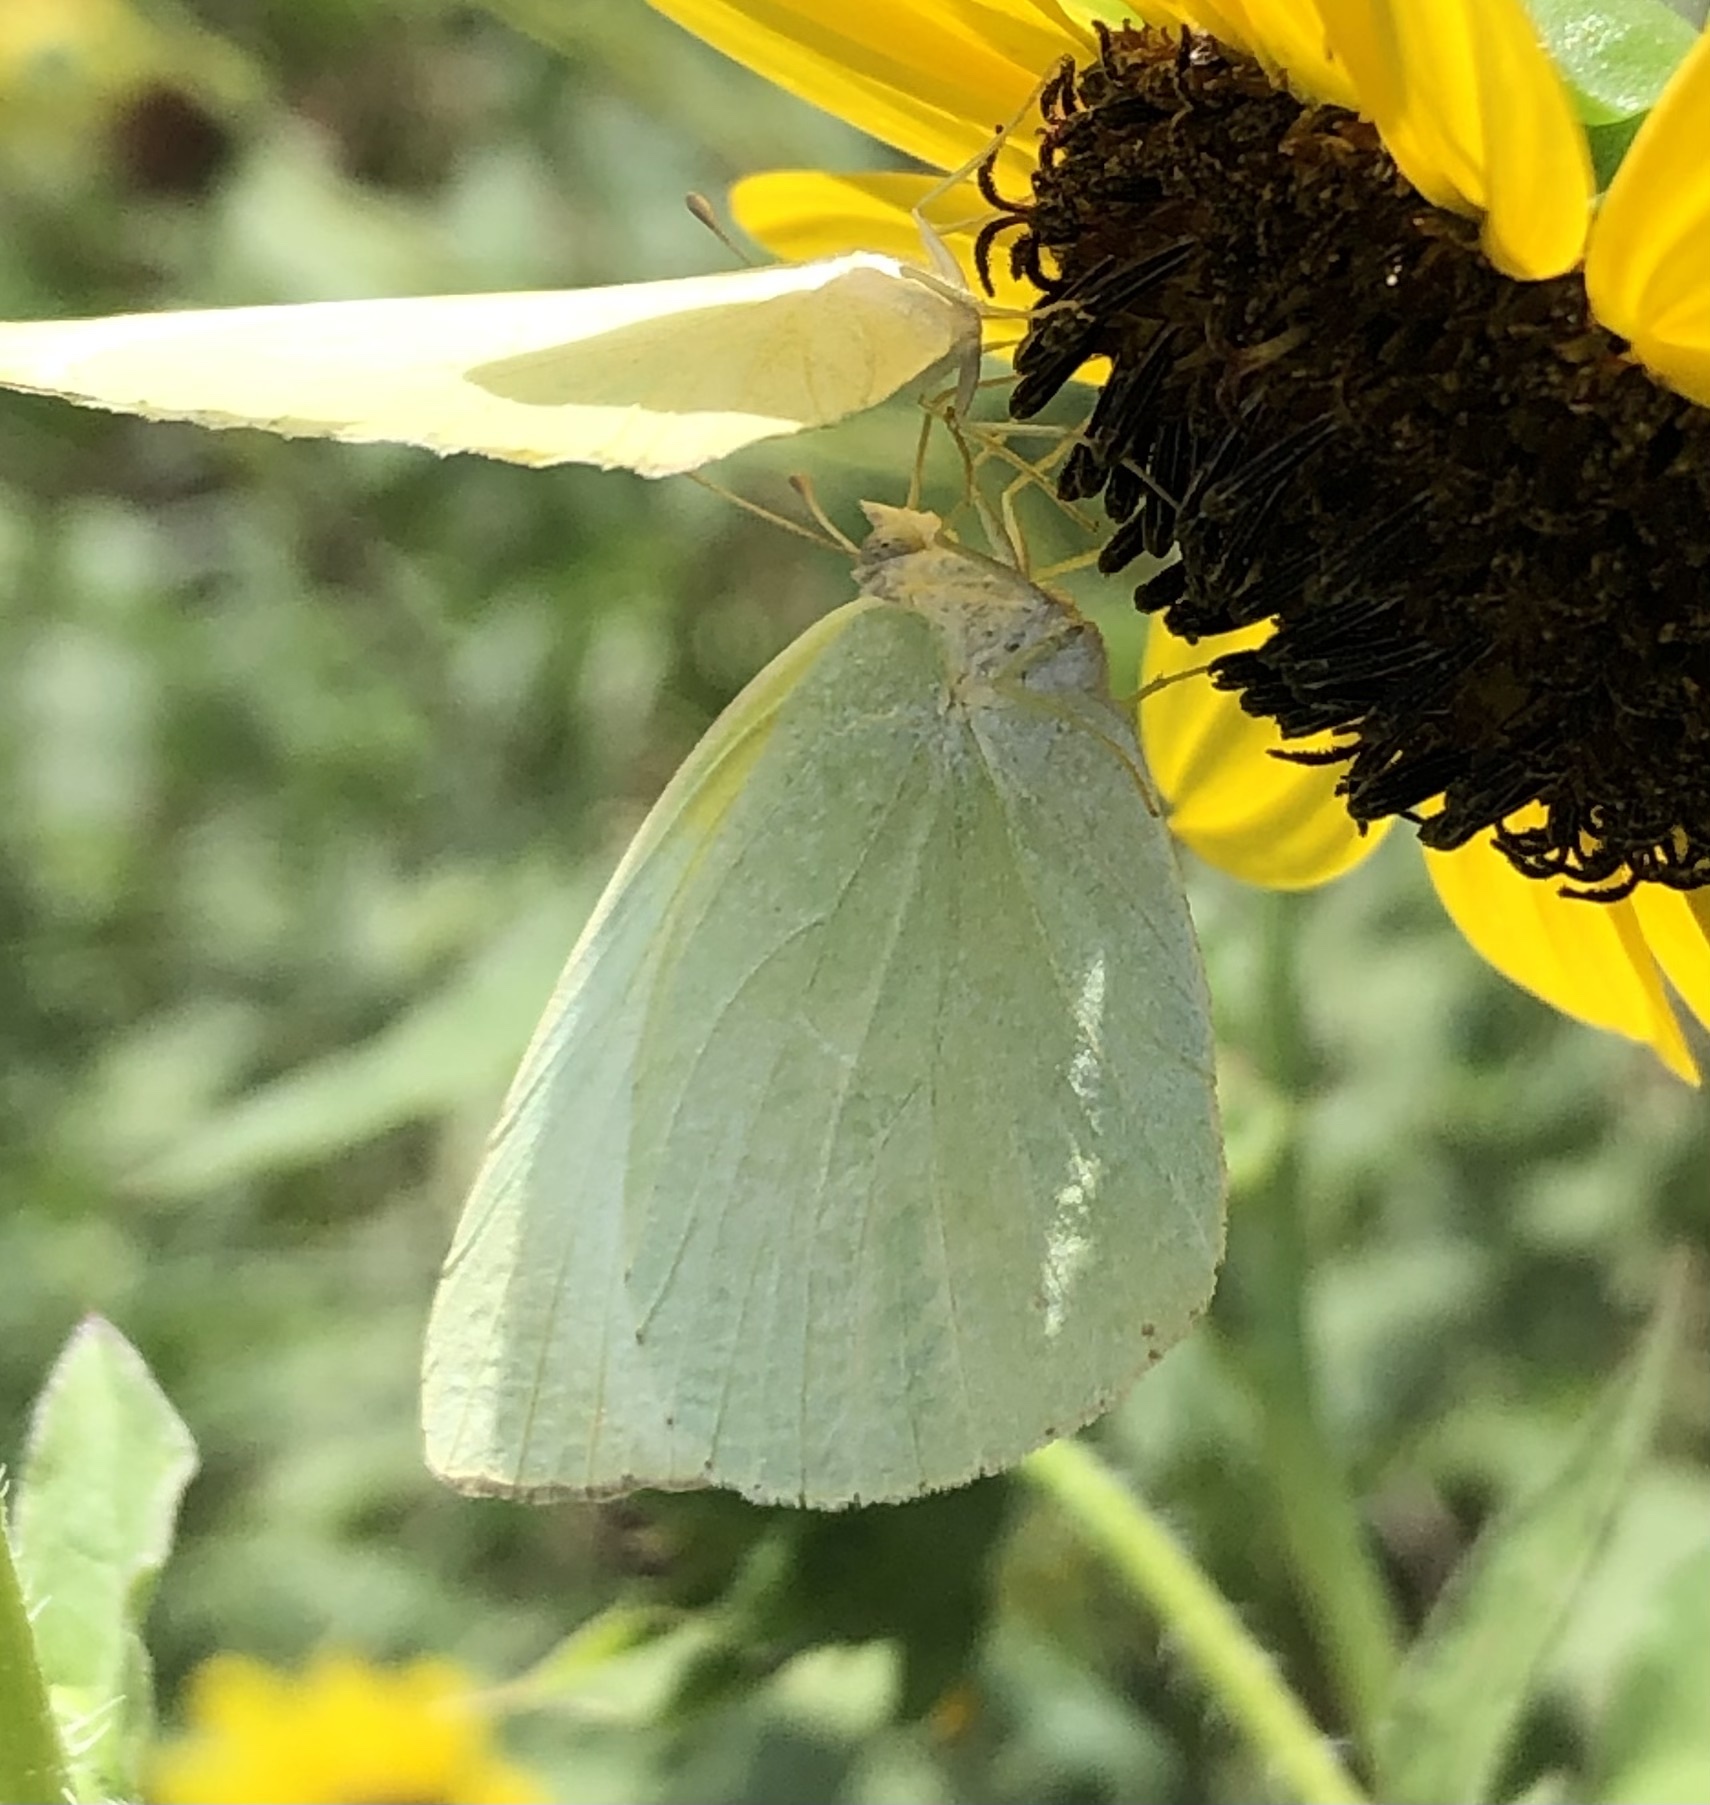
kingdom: Animalia
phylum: Arthropoda
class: Insecta
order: Lepidoptera
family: Pieridae
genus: Kricogonia
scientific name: Kricogonia lyside
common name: Guayacan sulphur,
